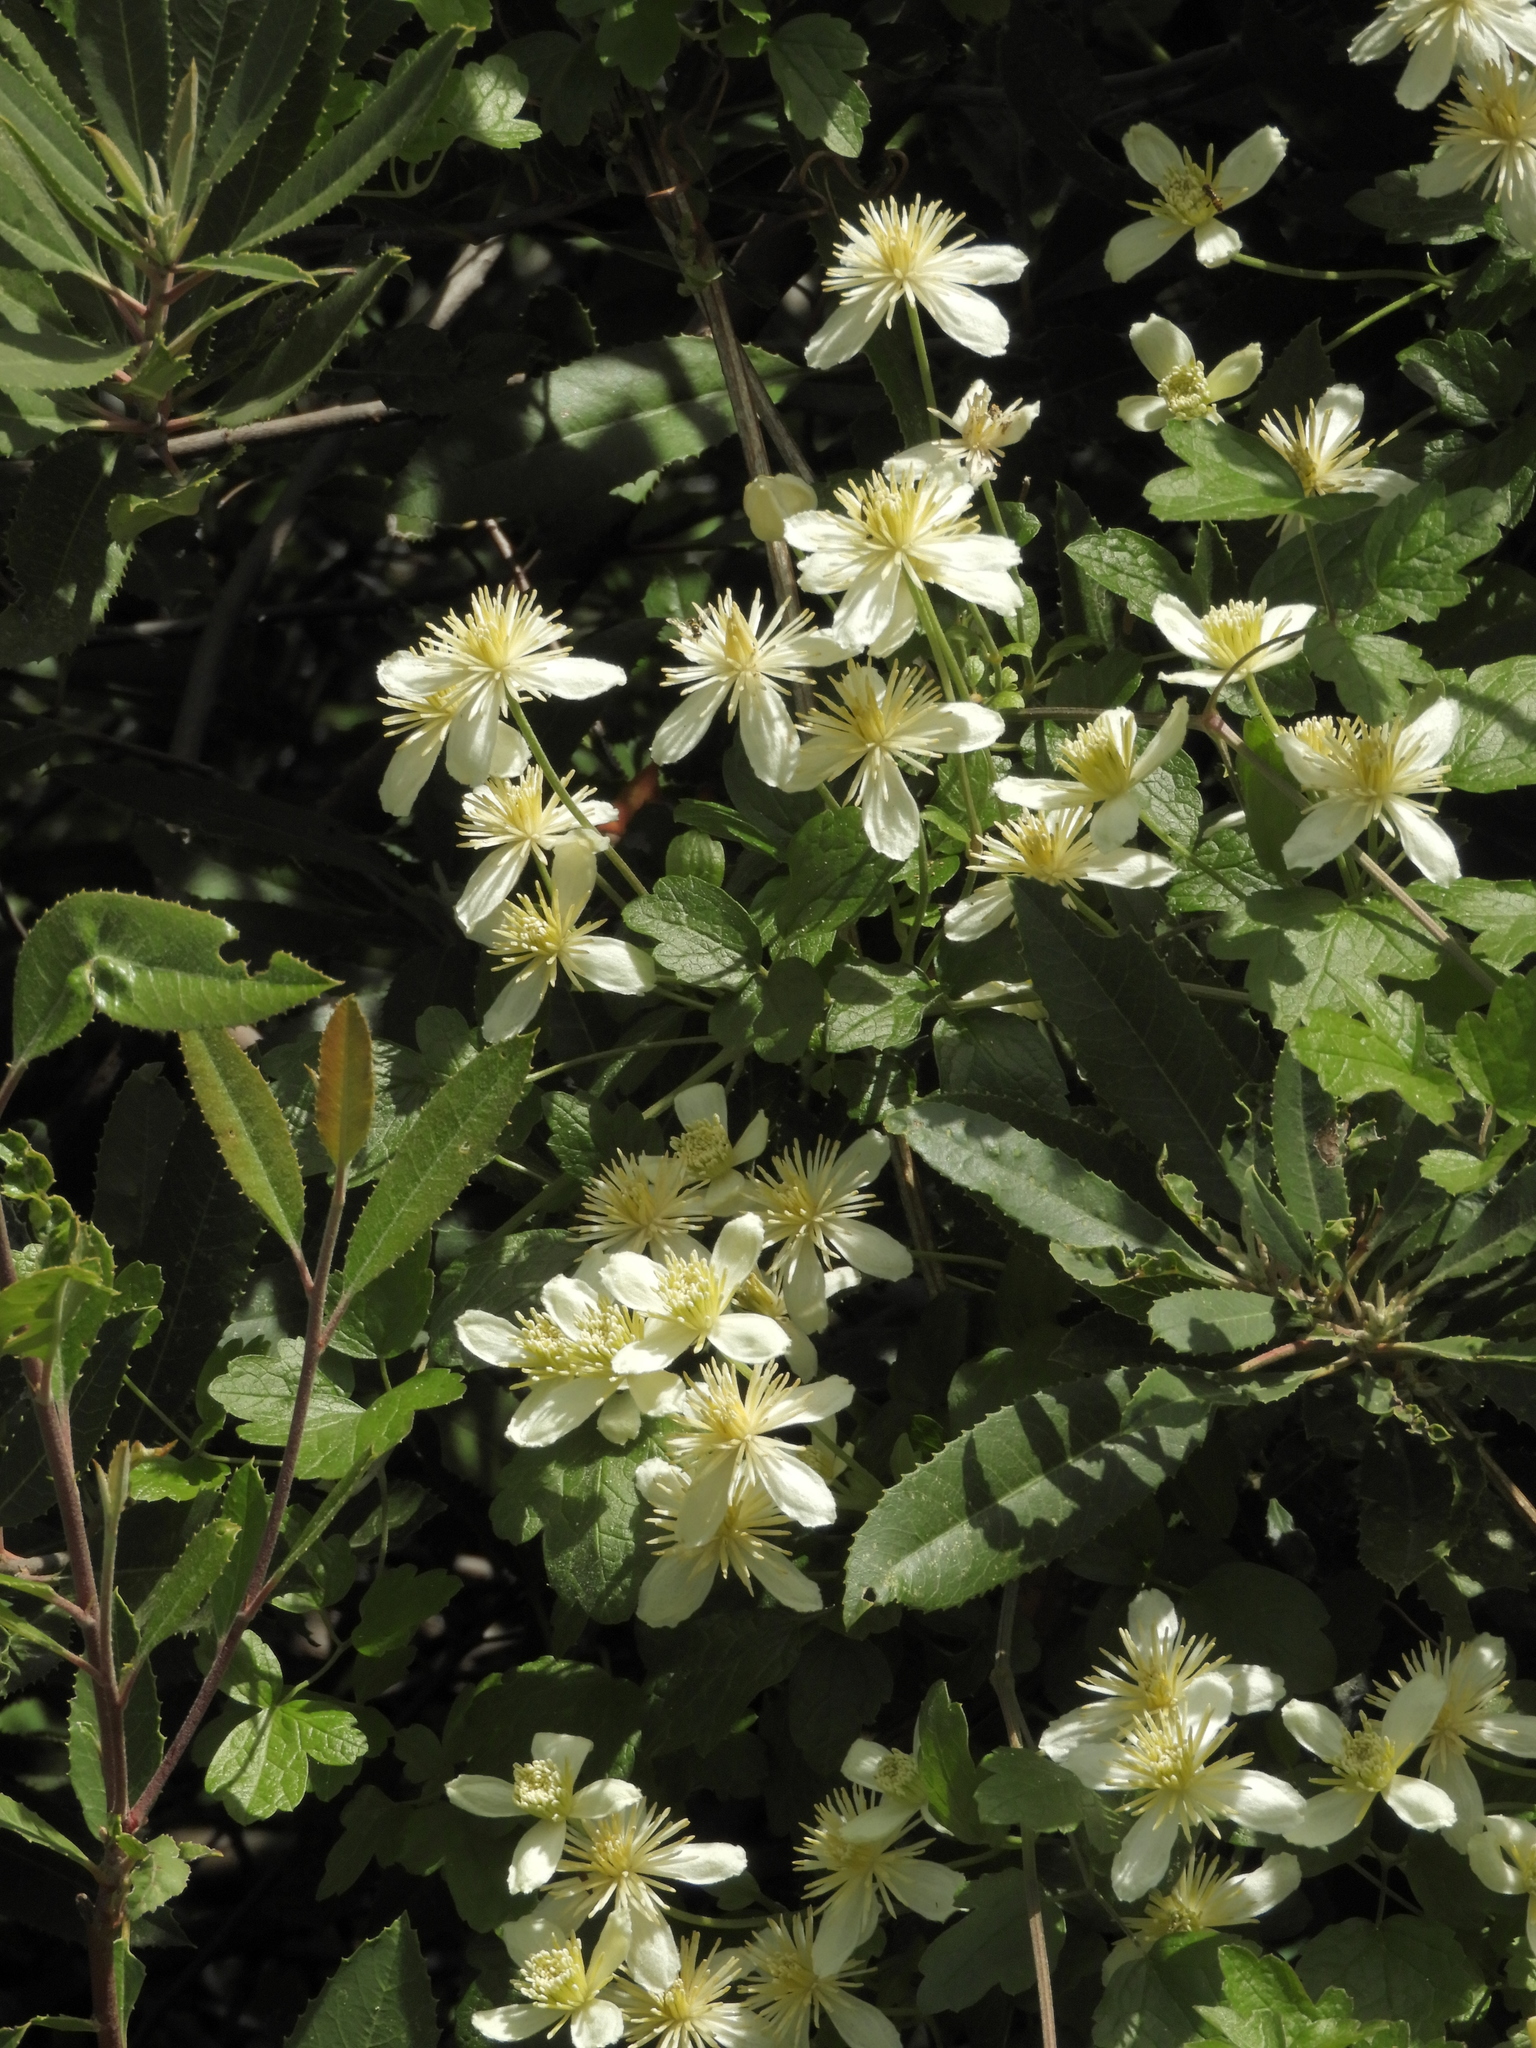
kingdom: Plantae
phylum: Tracheophyta
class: Magnoliopsida
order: Ranunculales
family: Ranunculaceae
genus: Clematis
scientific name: Clematis lasiantha
